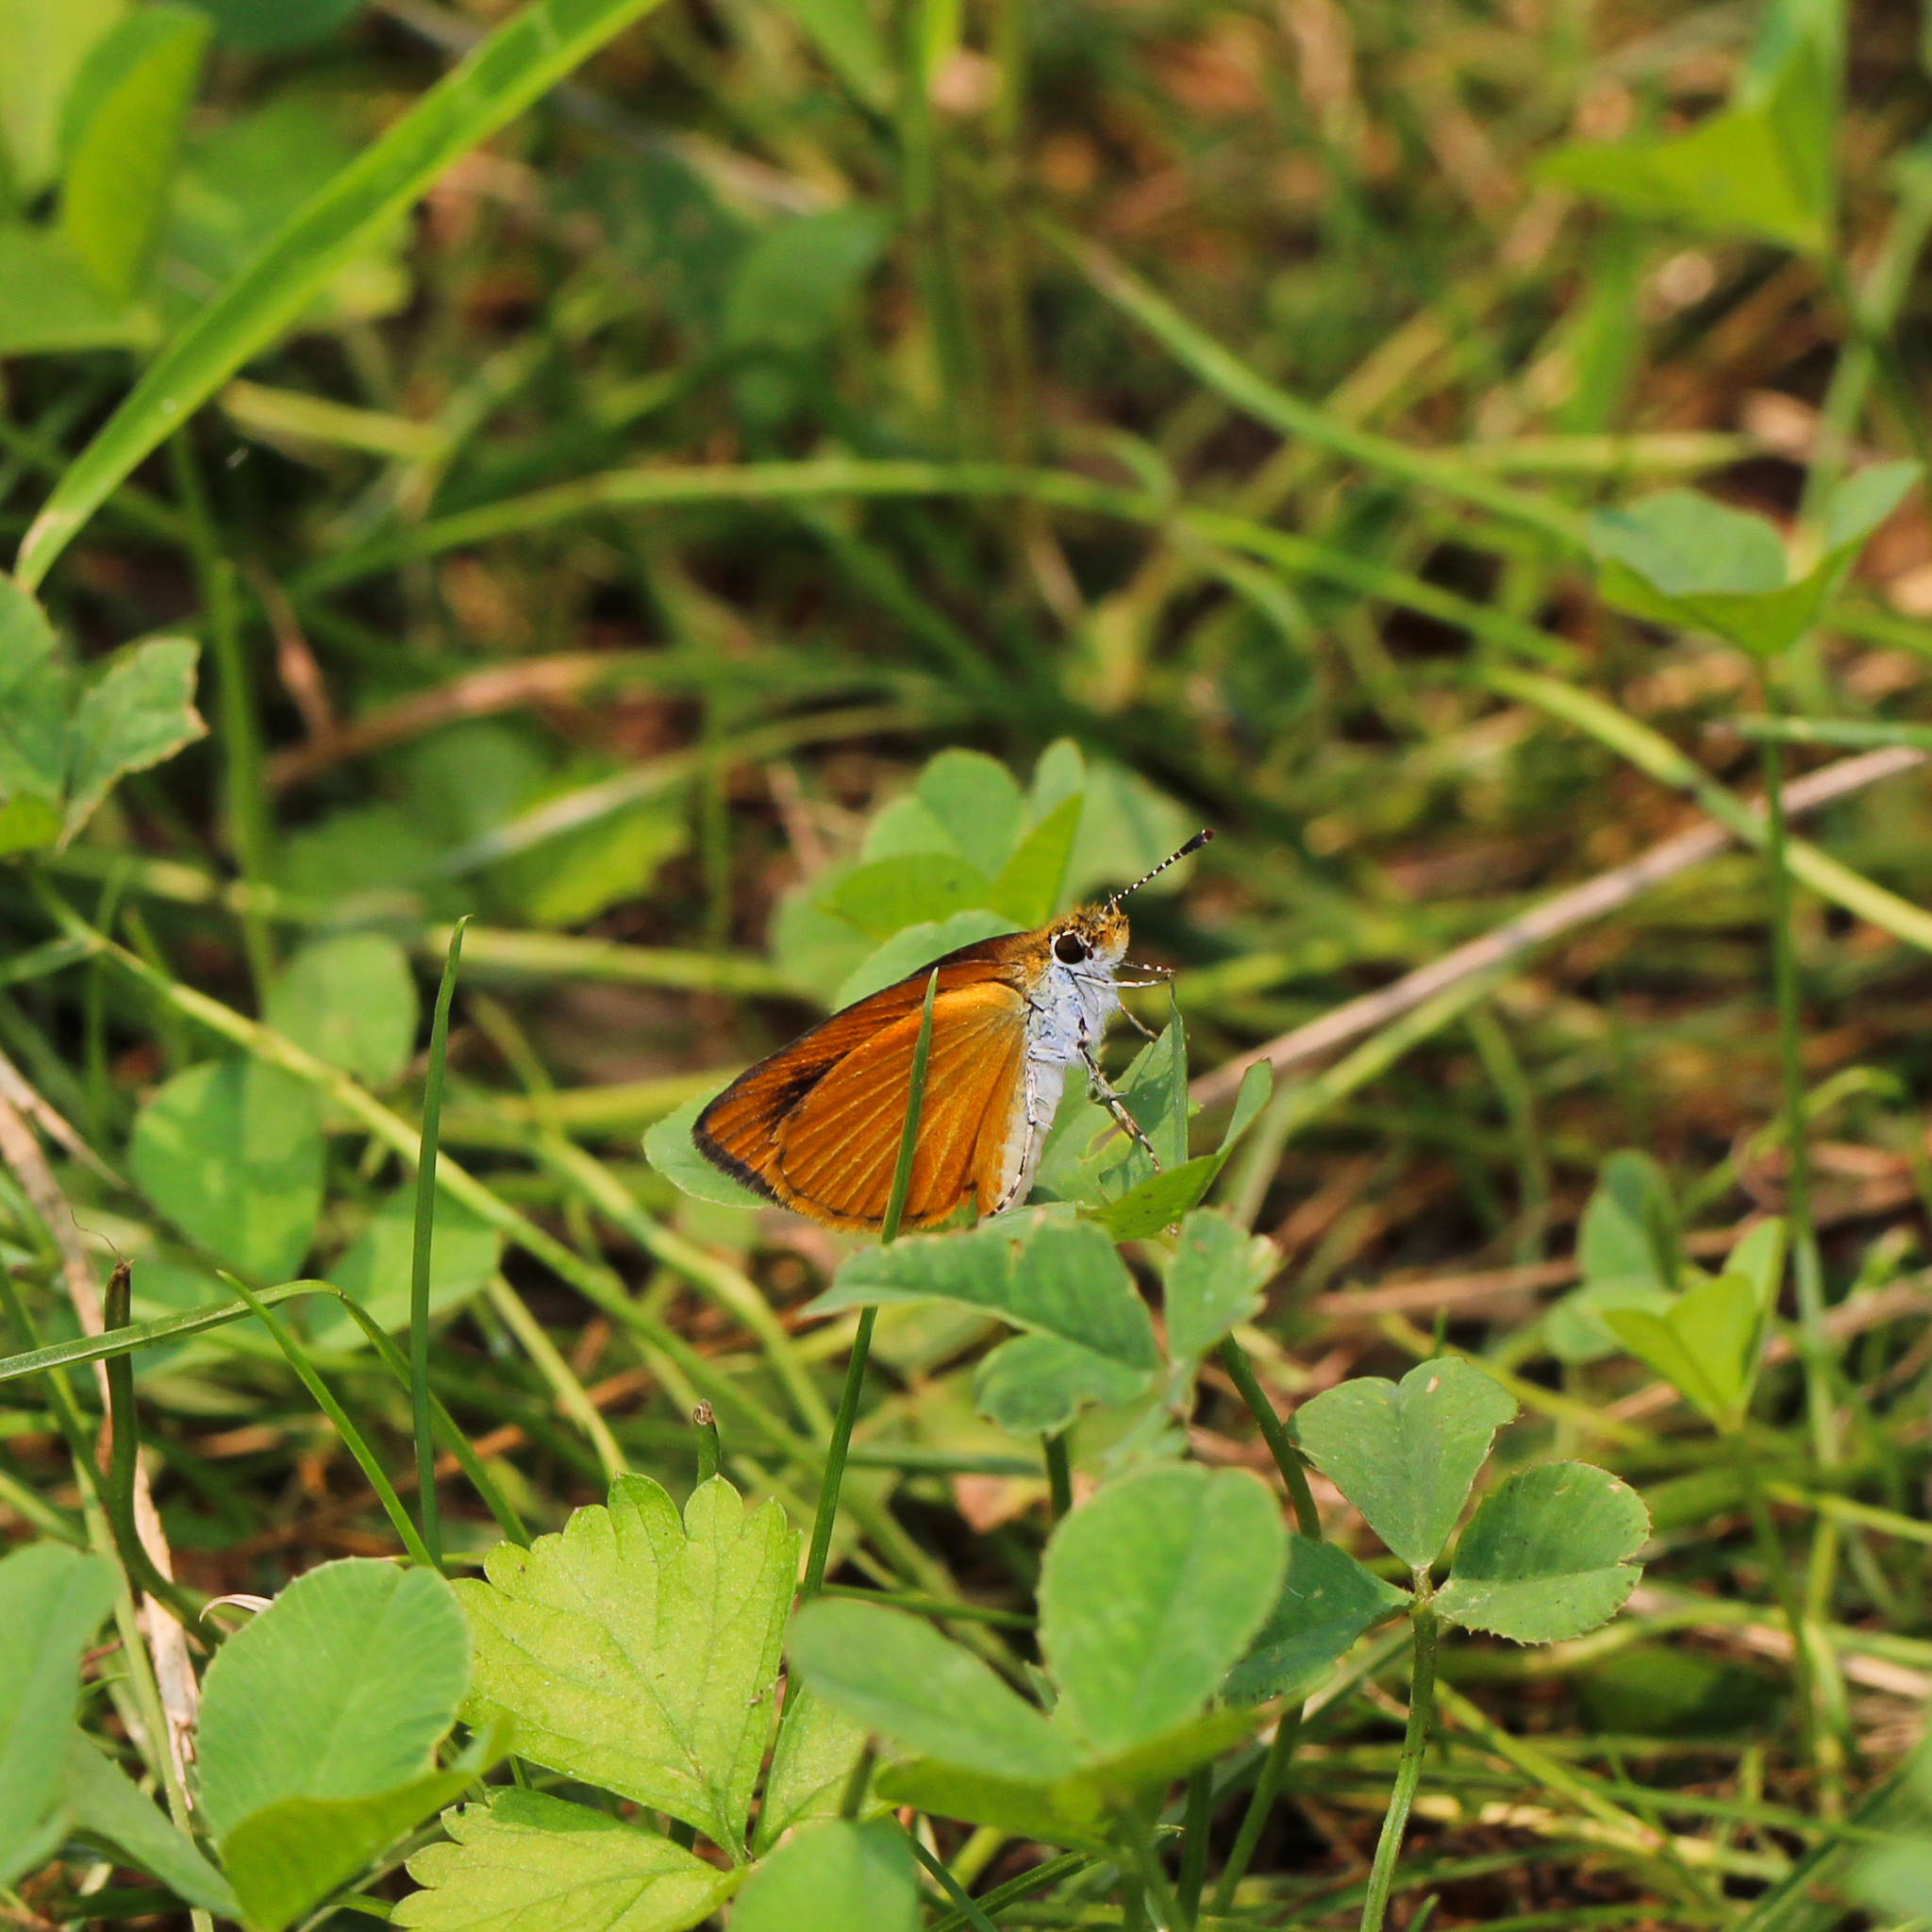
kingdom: Animalia
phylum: Arthropoda
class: Insecta
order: Lepidoptera
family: Hesperiidae
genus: Ancyloxypha
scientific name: Ancyloxypha numitor
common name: Least skipper
